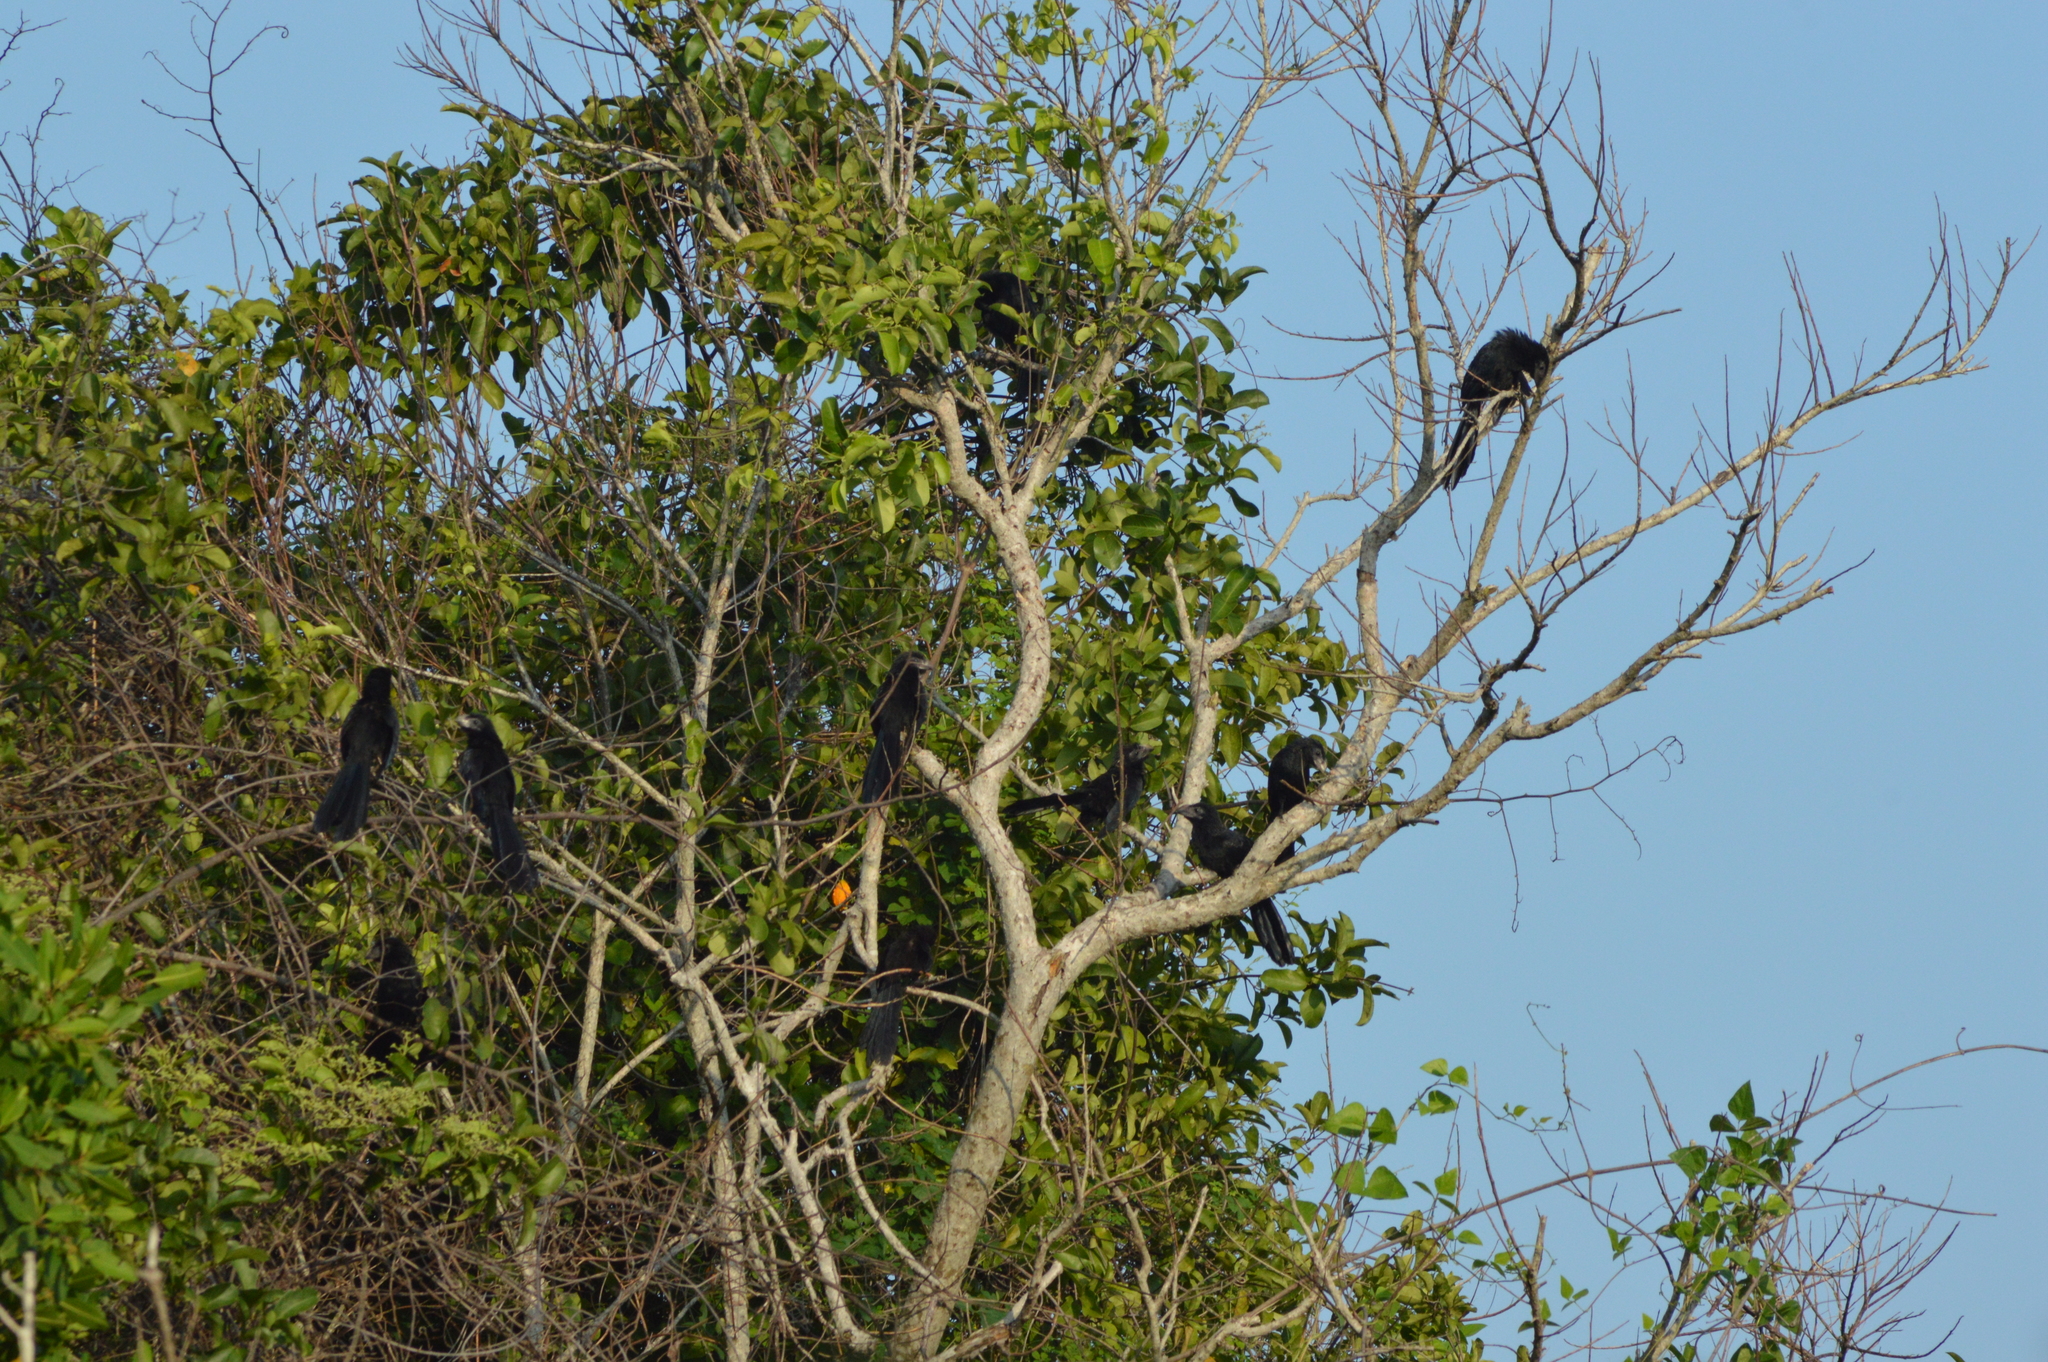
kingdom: Animalia
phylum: Chordata
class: Aves
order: Cuculiformes
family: Cuculidae
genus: Crotophaga
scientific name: Crotophaga sulcirostris
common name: Groove-billed ani
